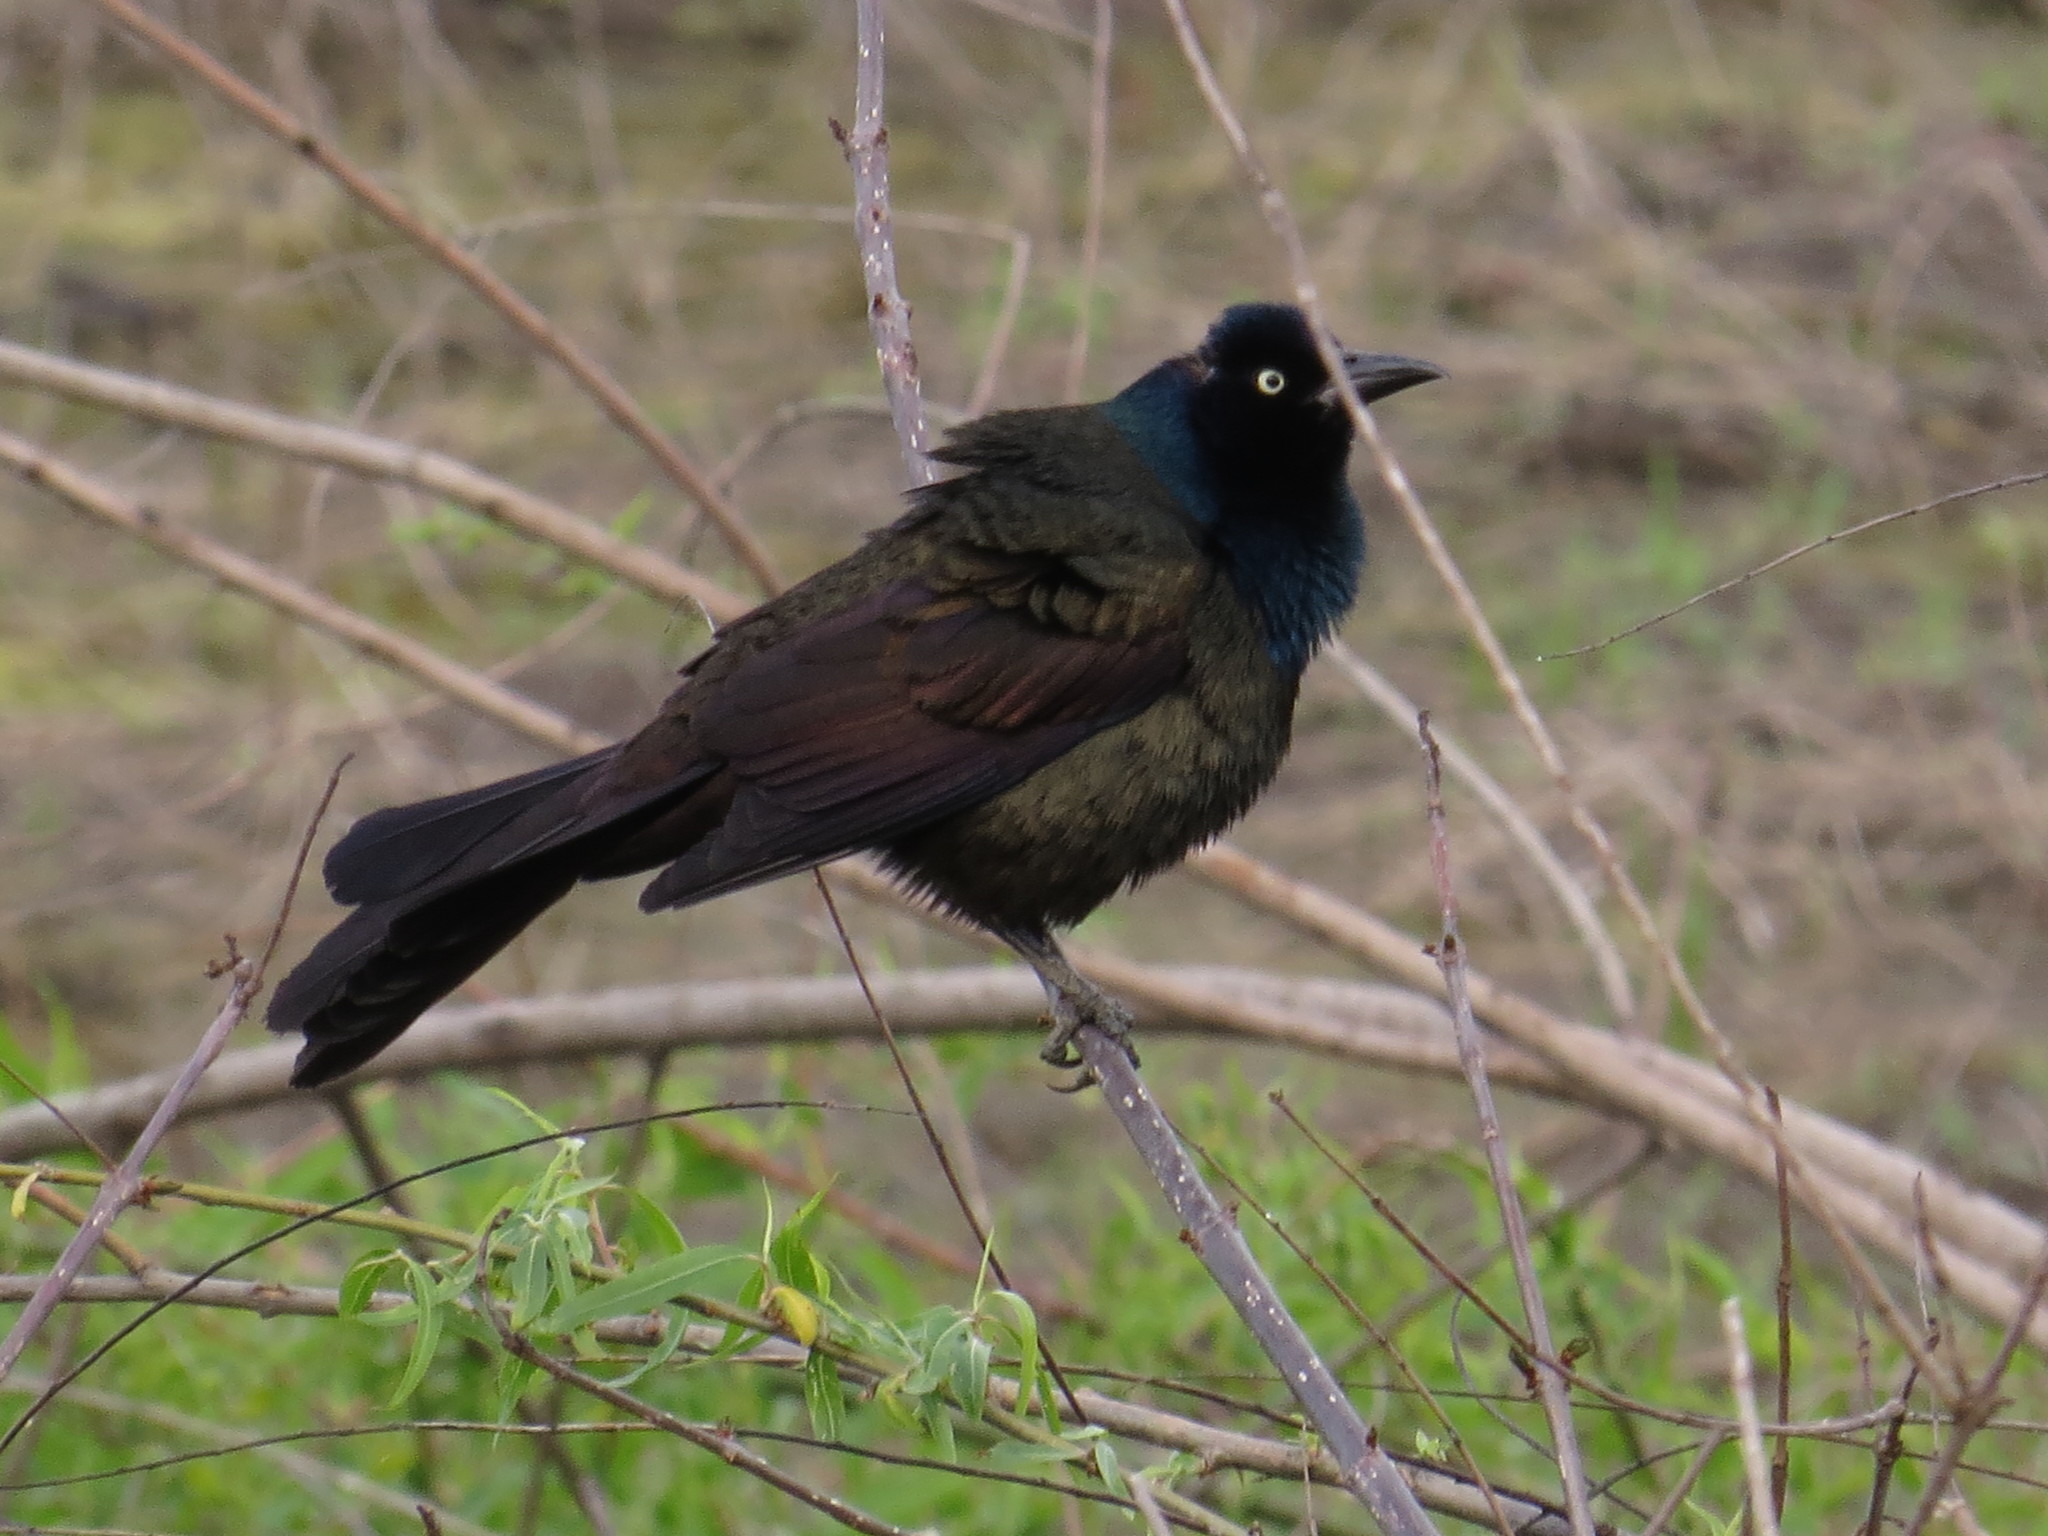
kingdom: Animalia
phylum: Chordata
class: Aves
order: Passeriformes
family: Icteridae
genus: Quiscalus
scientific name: Quiscalus quiscula
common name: Common grackle
